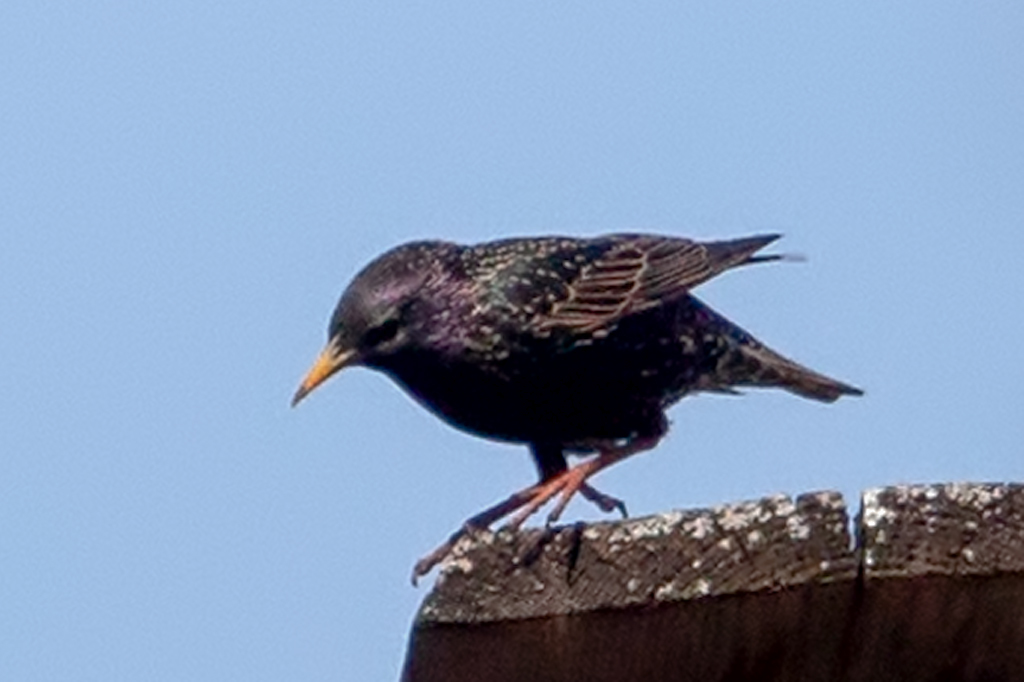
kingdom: Animalia
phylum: Chordata
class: Aves
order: Passeriformes
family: Sturnidae
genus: Sturnus
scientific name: Sturnus vulgaris
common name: Common starling
